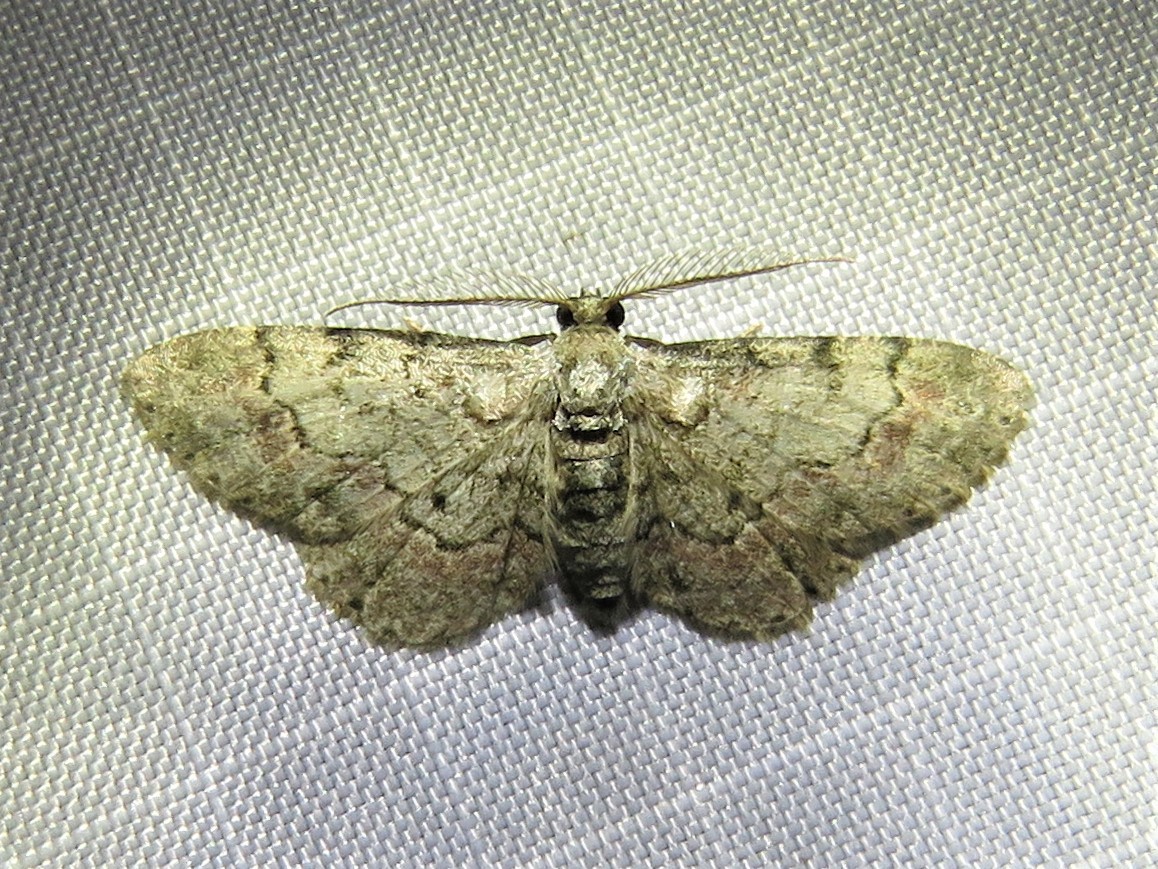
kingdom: Animalia
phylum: Arthropoda
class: Insecta
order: Lepidoptera
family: Geometridae
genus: Glenoides
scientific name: Glenoides texanaria
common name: Texas gray
